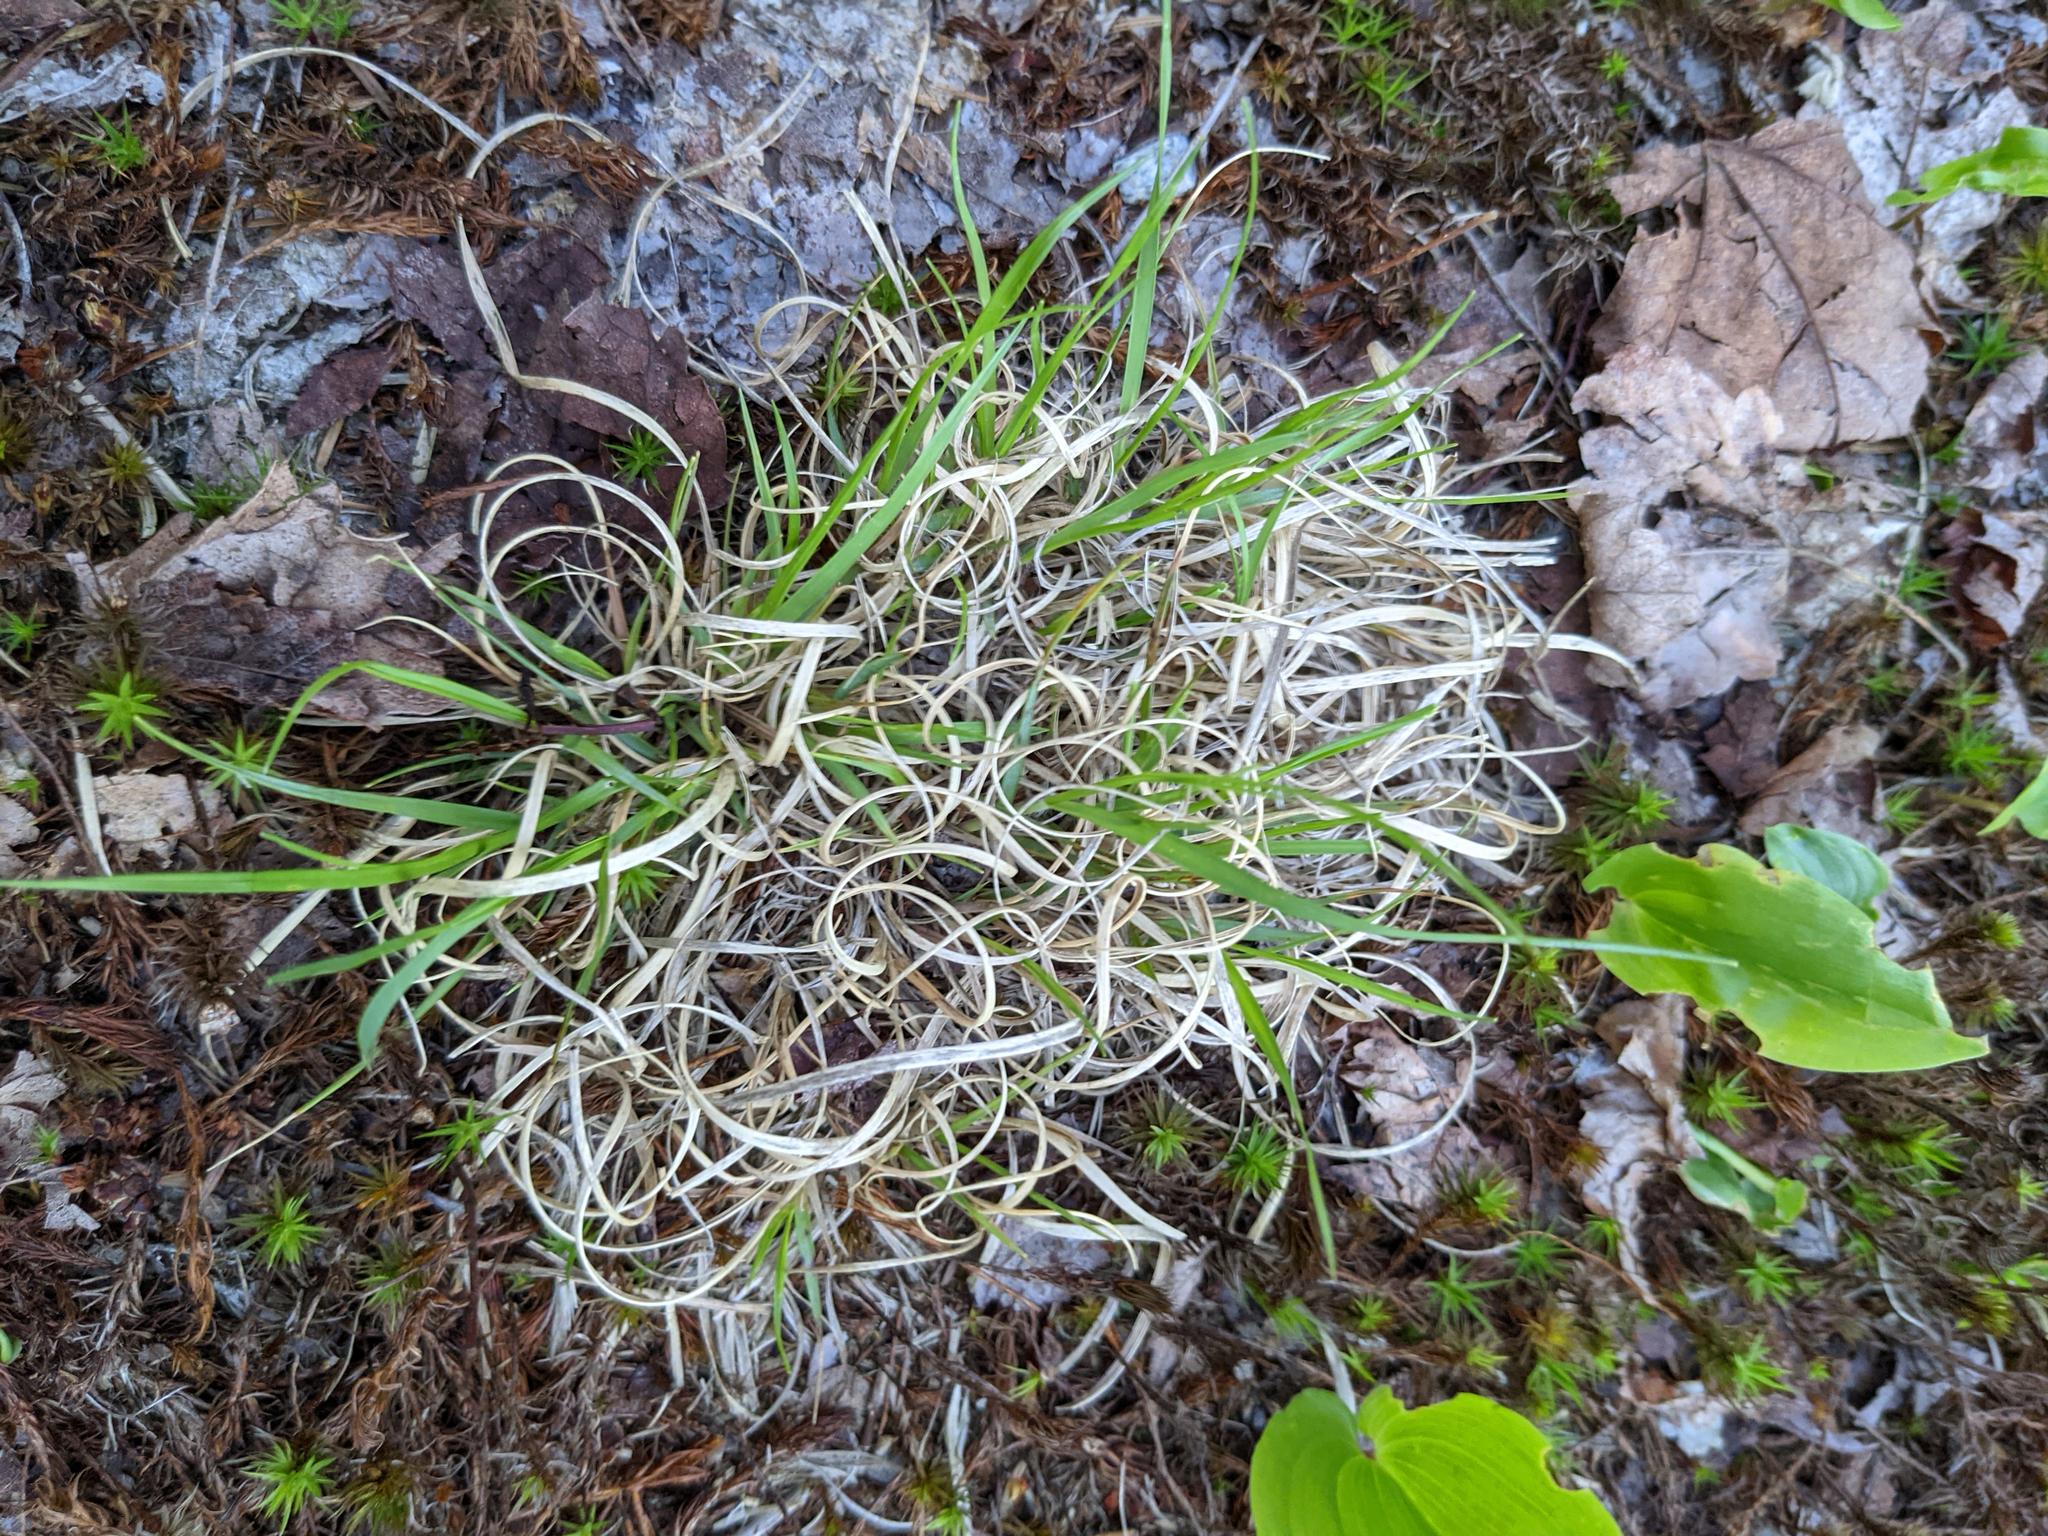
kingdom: Plantae
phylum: Tracheophyta
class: Liliopsida
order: Poales
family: Poaceae
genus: Danthonia
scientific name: Danthonia spicata
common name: Common wild oatgrass
